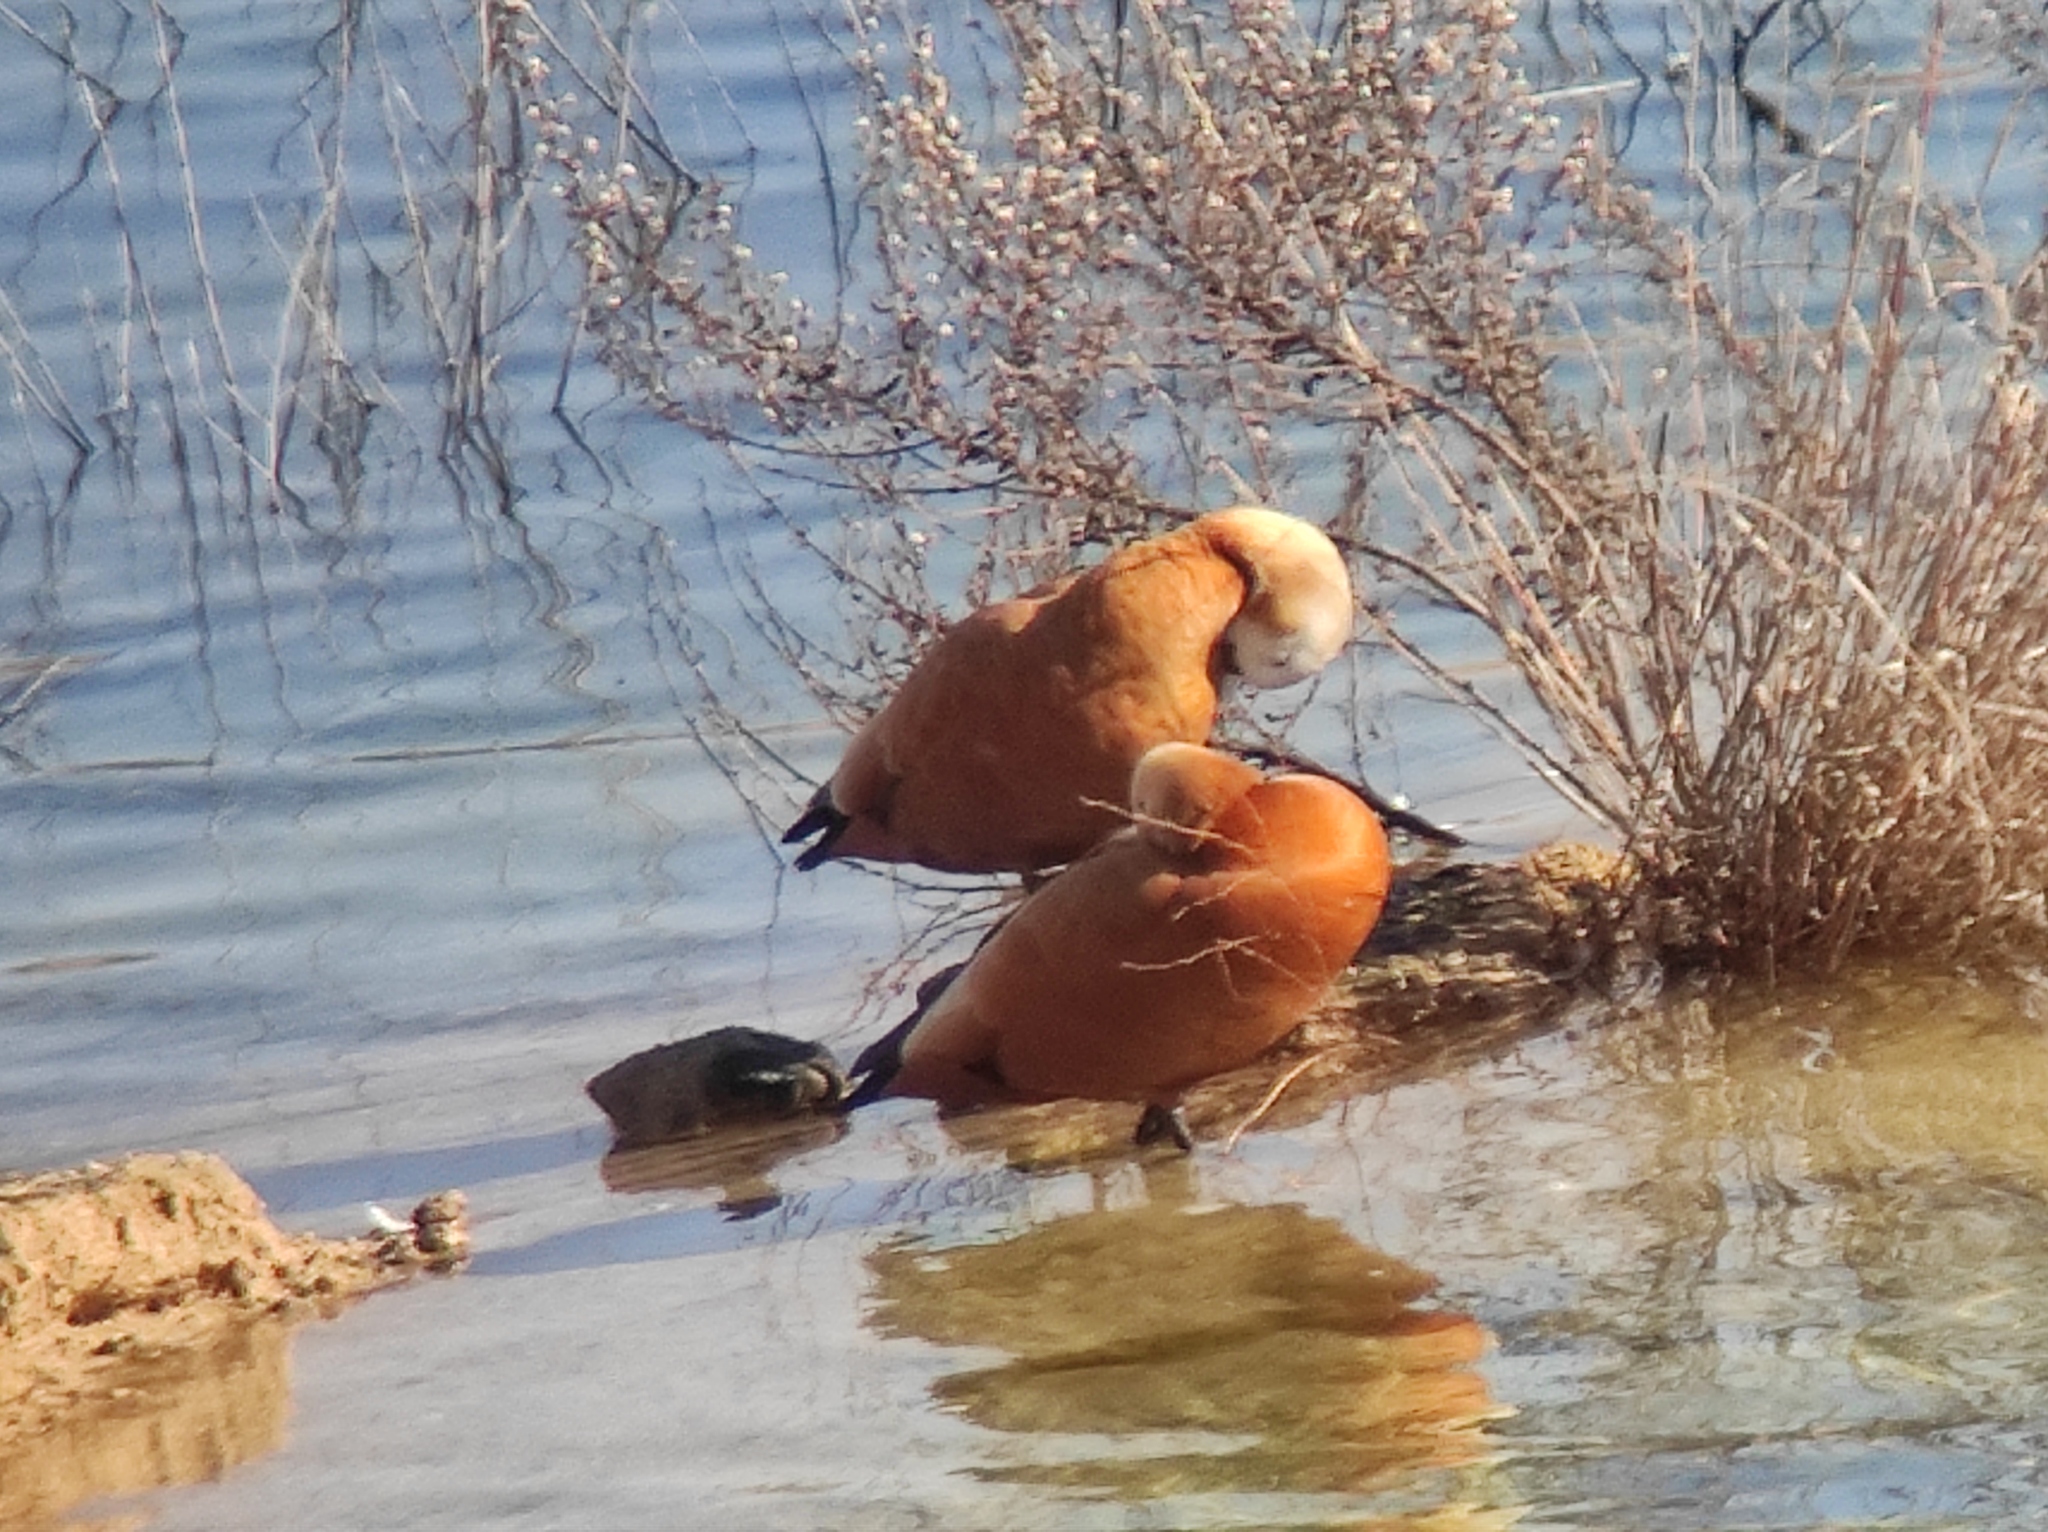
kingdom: Animalia
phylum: Chordata
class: Aves
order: Anseriformes
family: Anatidae
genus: Tadorna
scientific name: Tadorna ferruginea
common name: Ruddy shelduck
